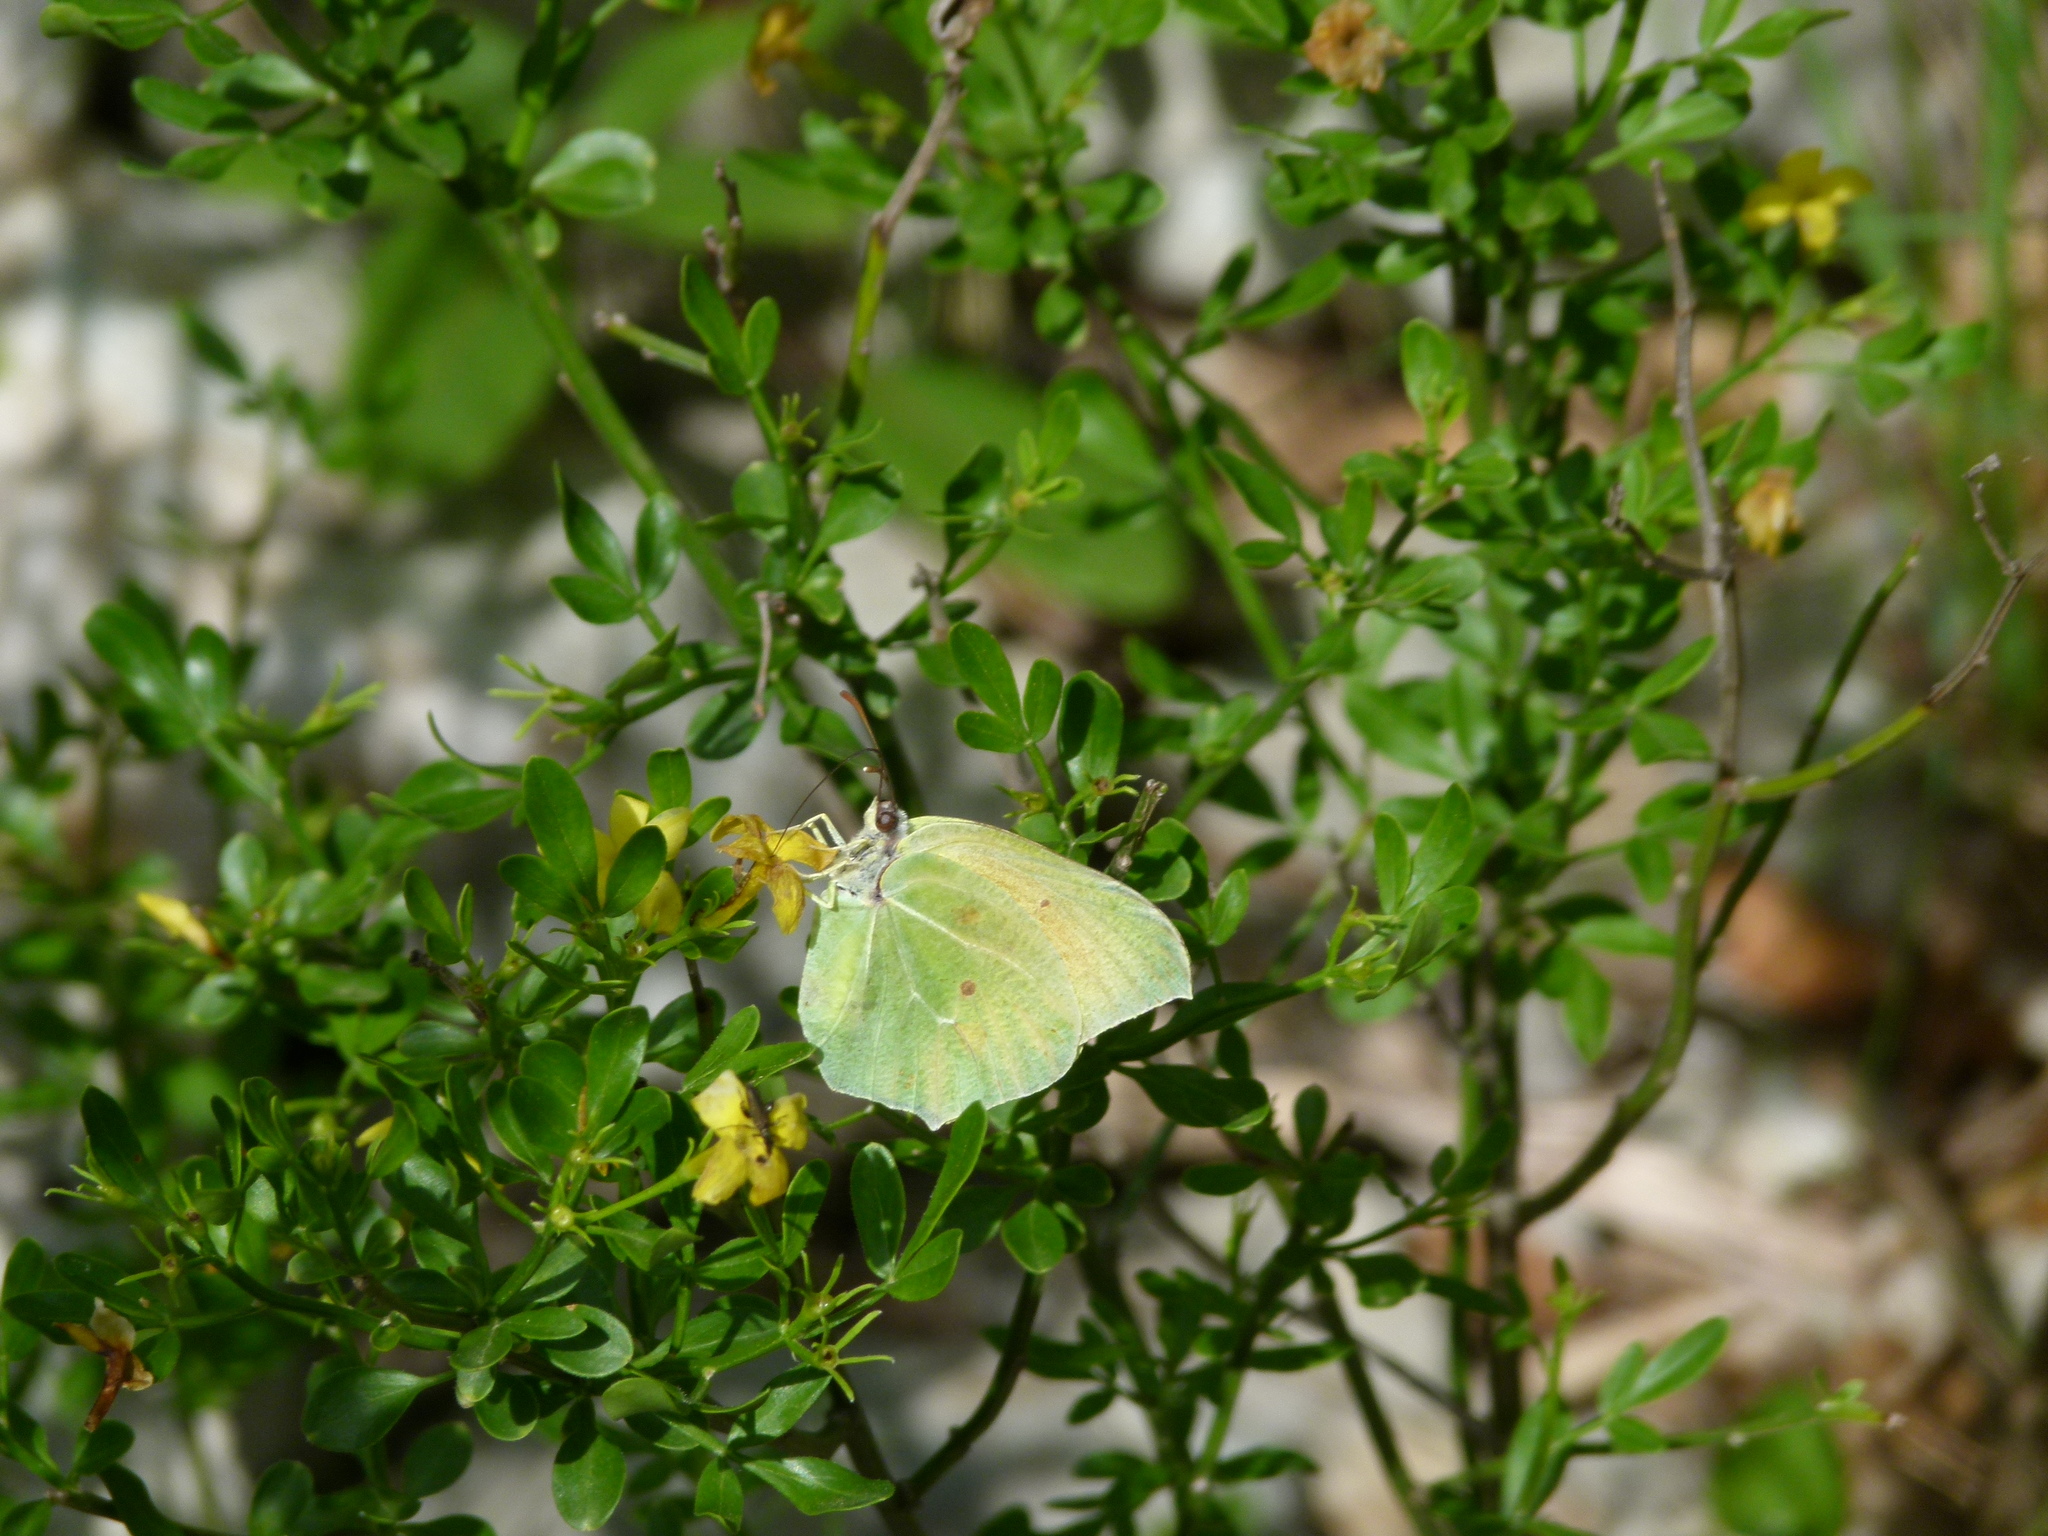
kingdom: Animalia
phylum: Arthropoda
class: Insecta
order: Lepidoptera
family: Pieridae
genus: Gonepteryx
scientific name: Gonepteryx cleopatra
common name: Cleopatra
